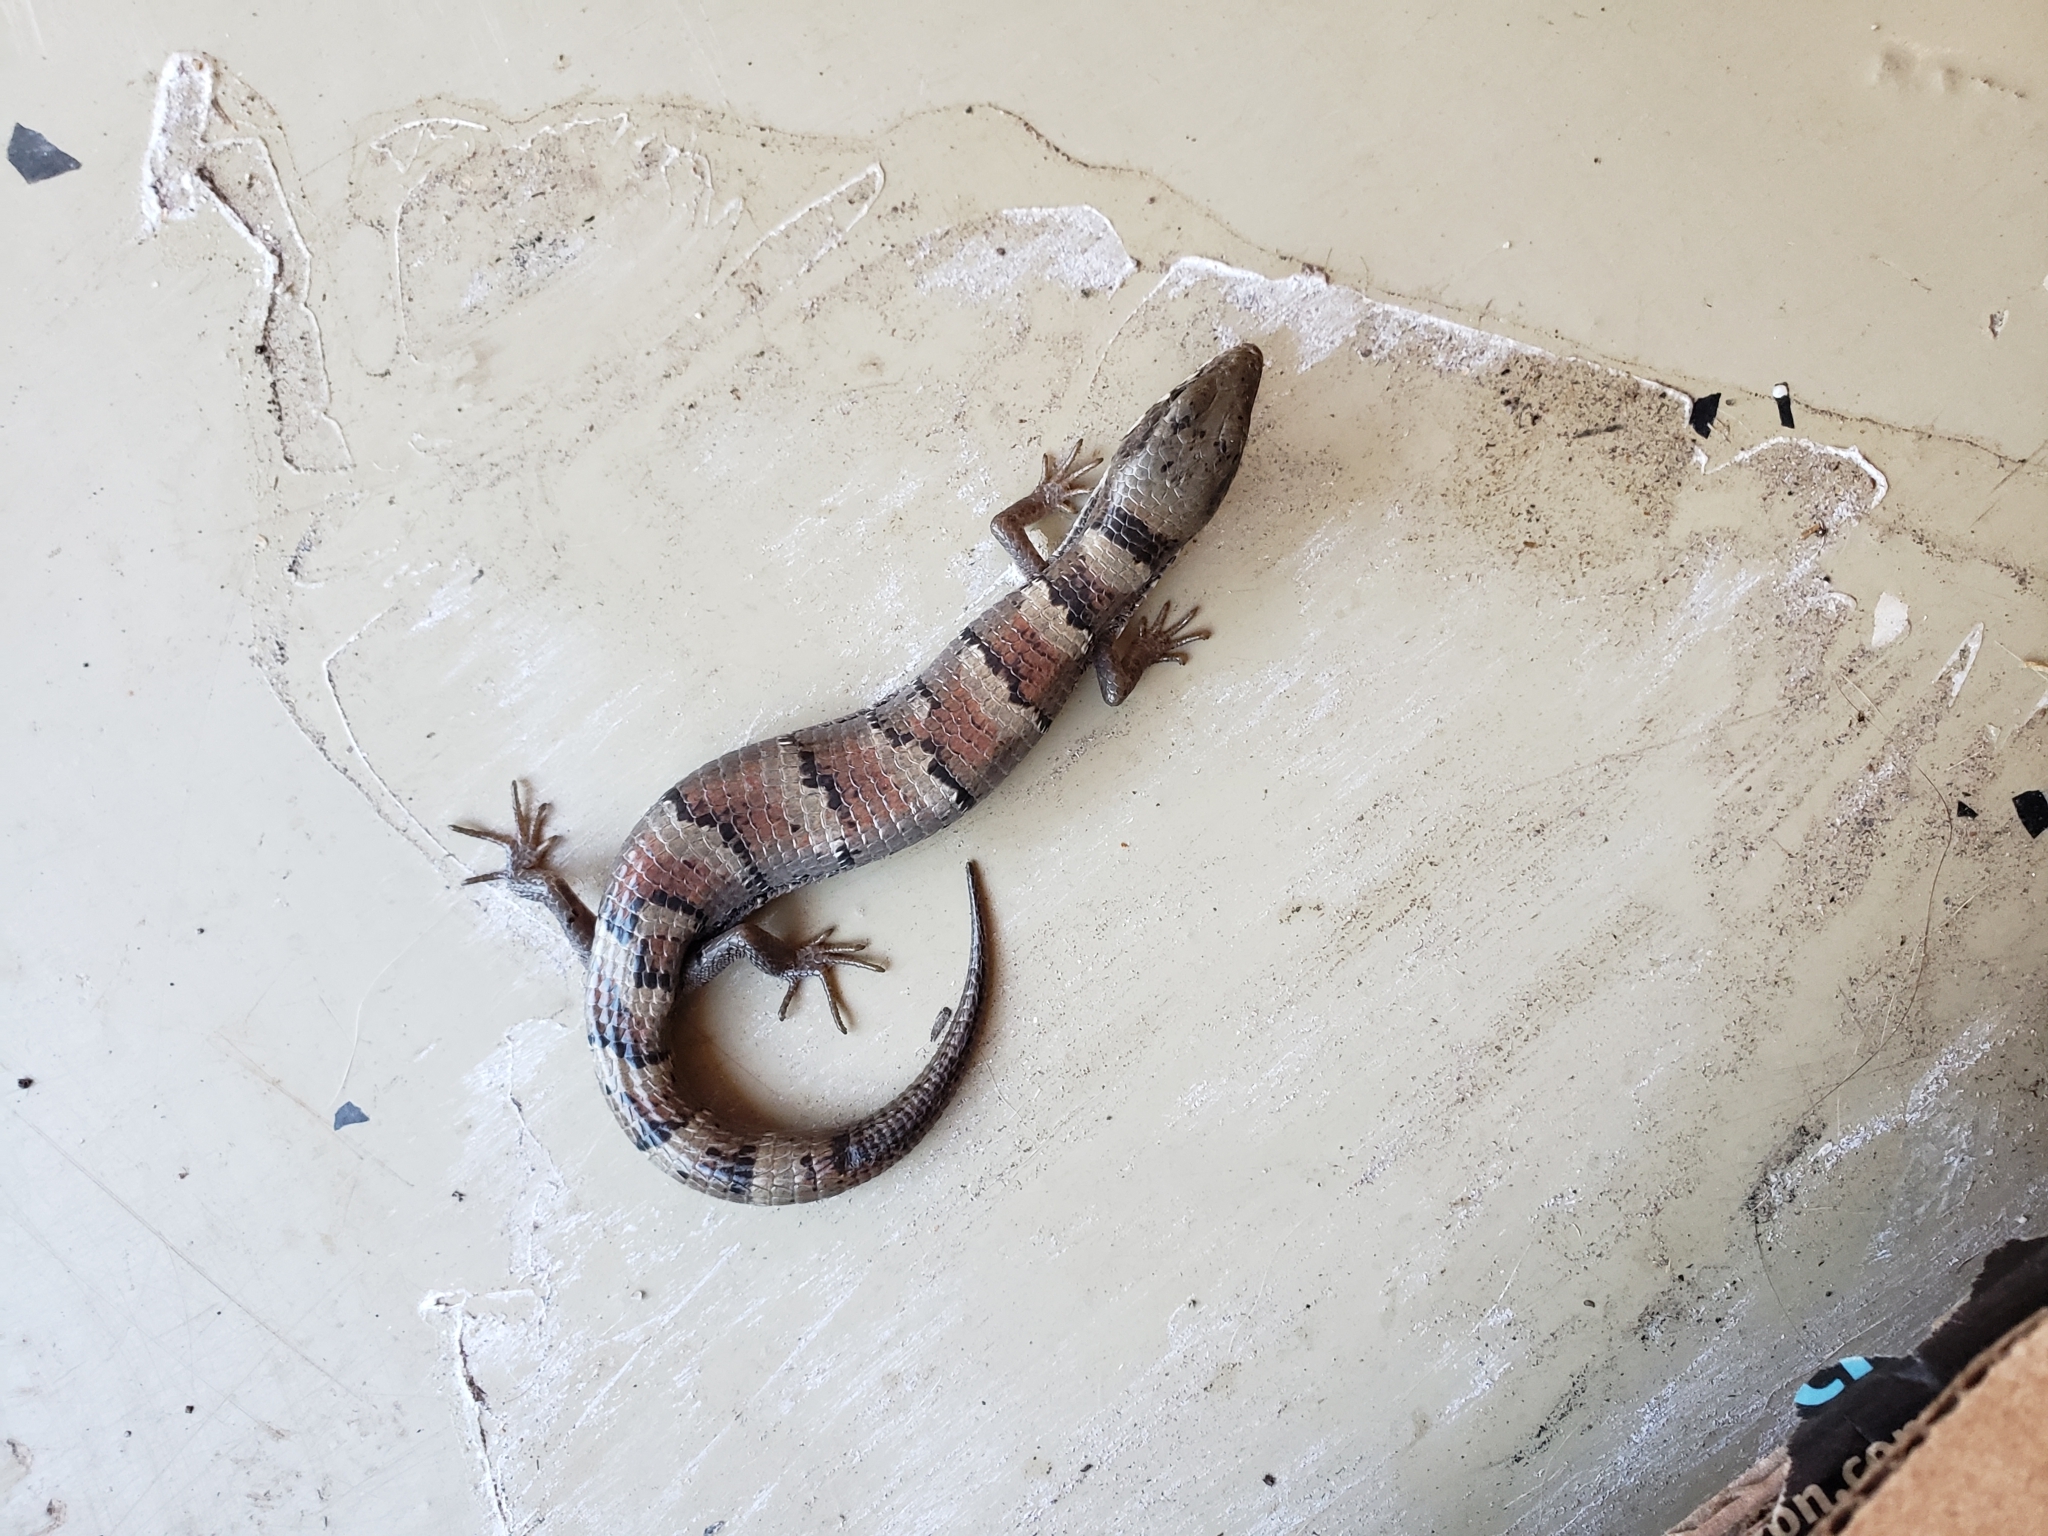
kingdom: Animalia
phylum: Chordata
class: Squamata
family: Anguidae
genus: Elgaria
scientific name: Elgaria kingii
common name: Madrean alligator lizard
